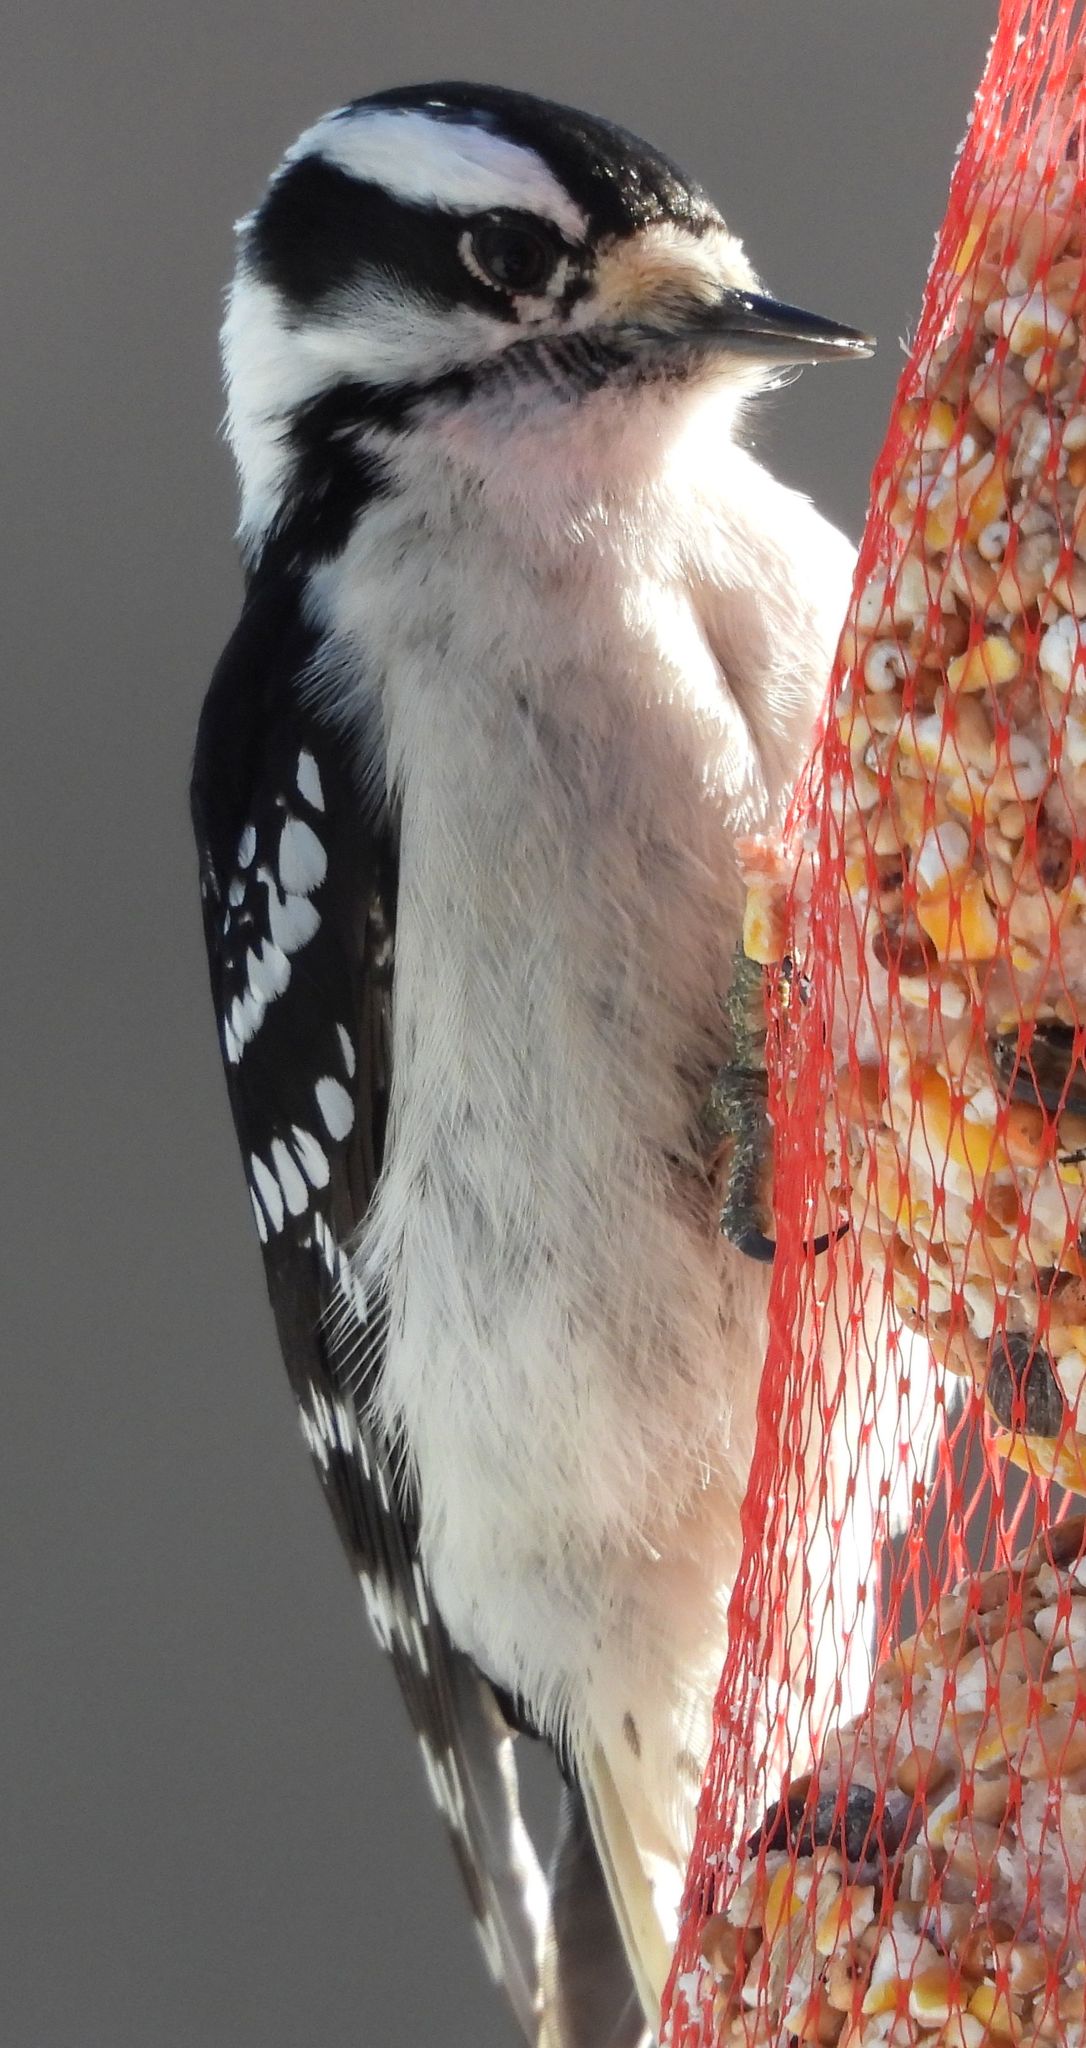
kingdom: Animalia
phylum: Chordata
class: Aves
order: Piciformes
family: Picidae
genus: Dryobates
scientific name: Dryobates pubescens
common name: Downy woodpecker
